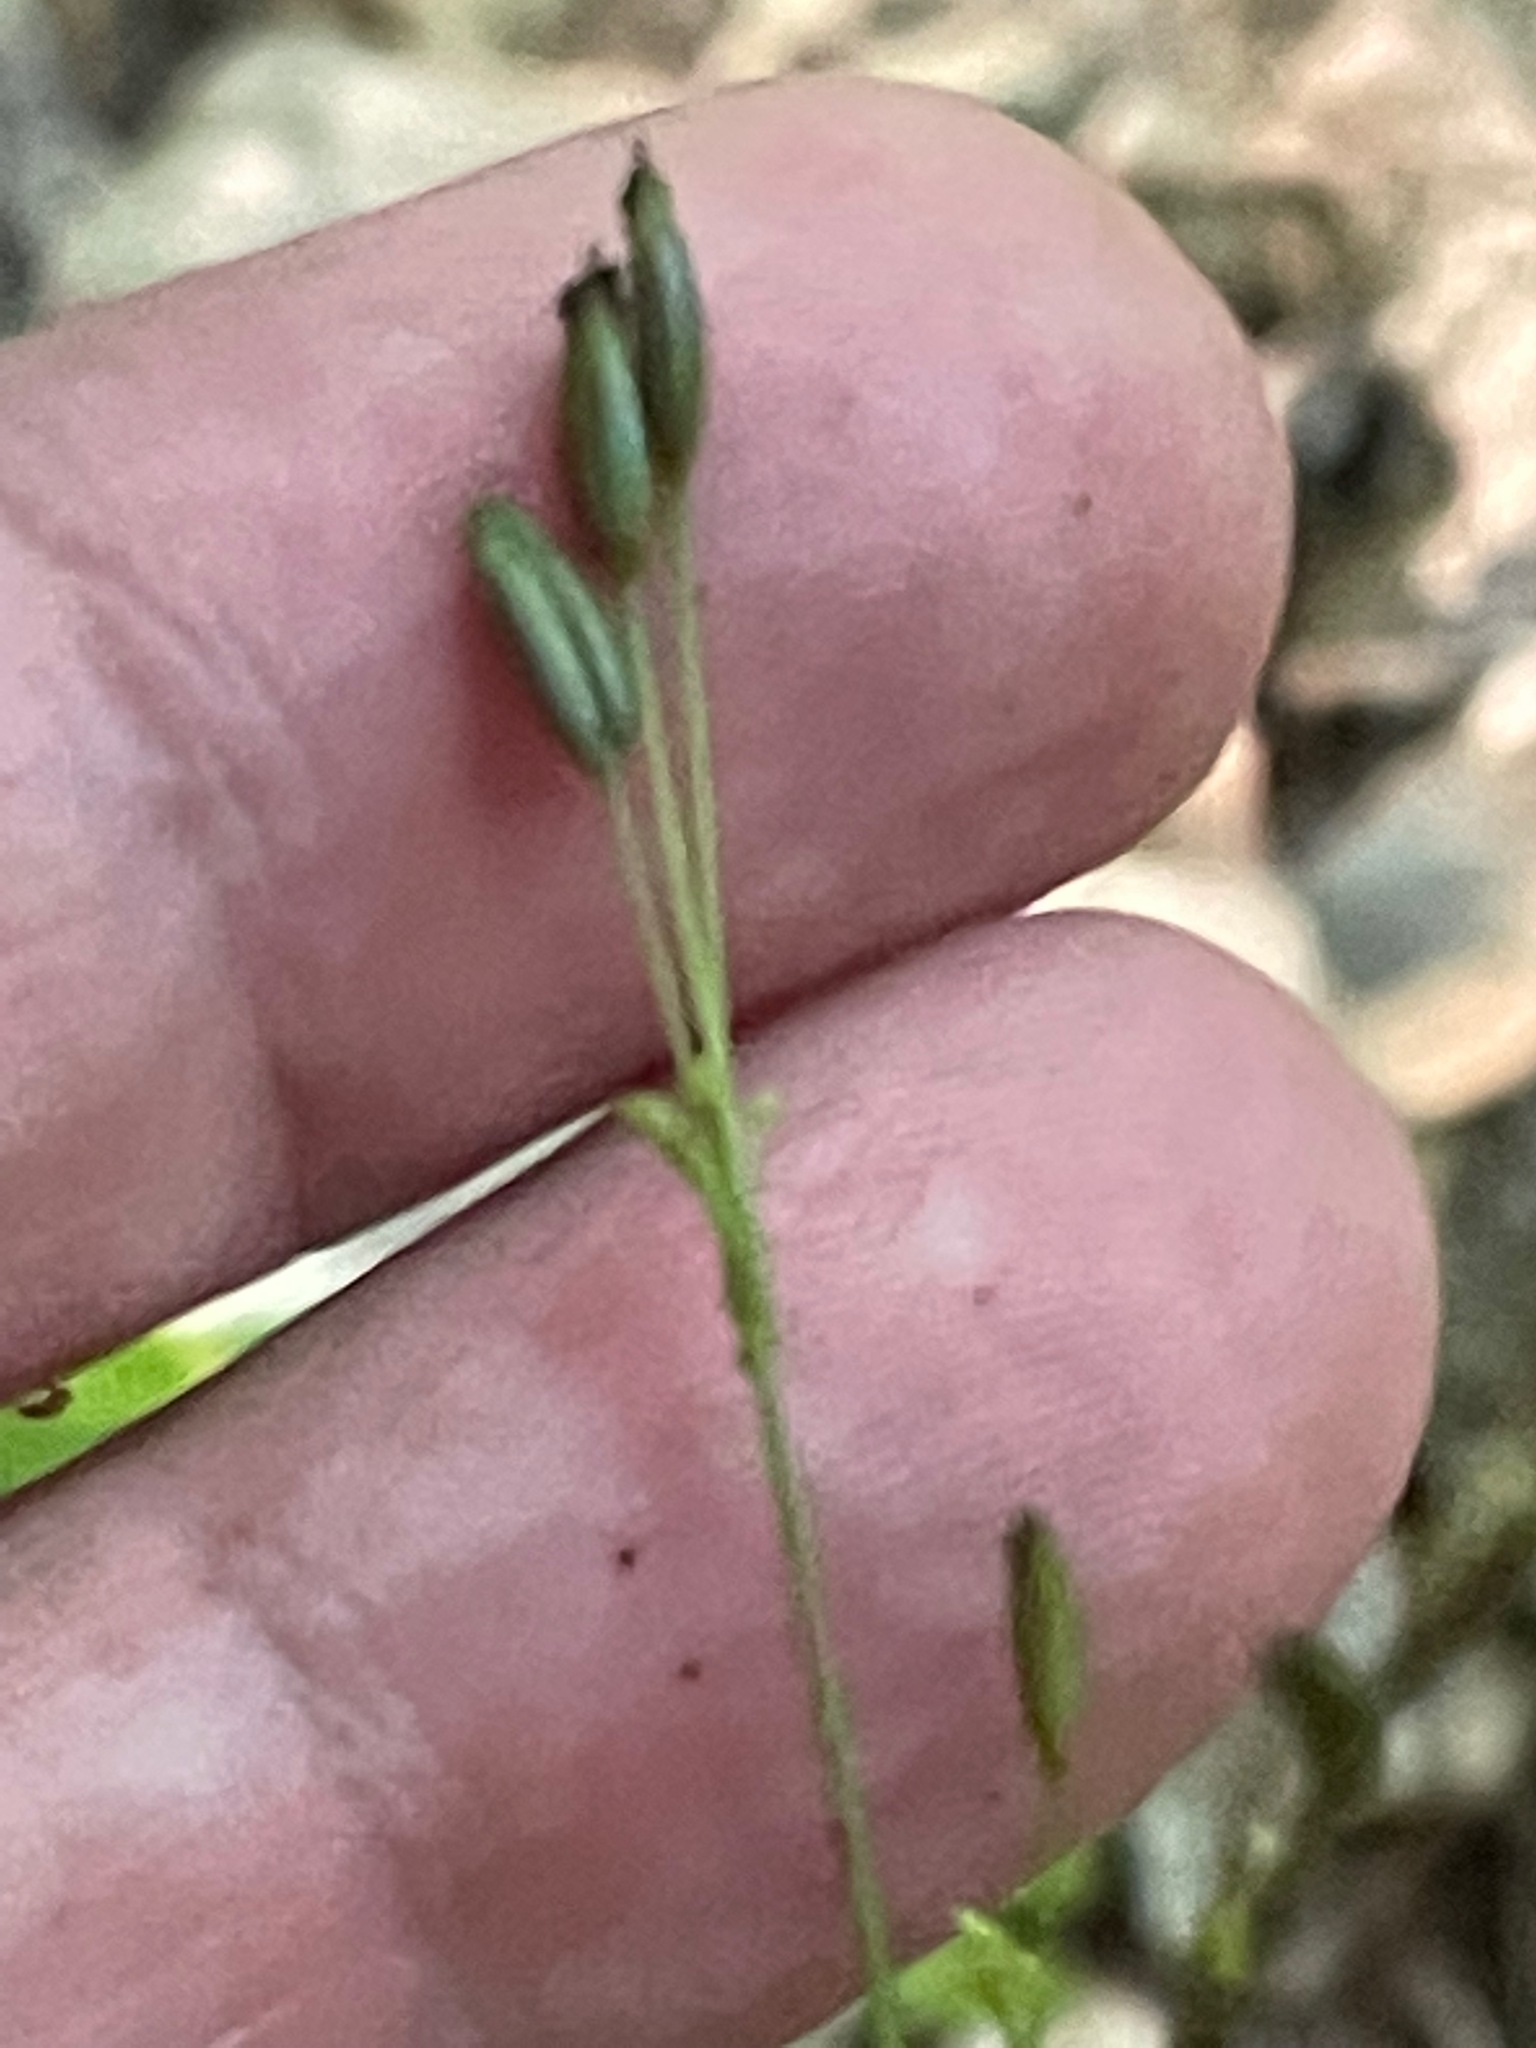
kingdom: Plantae
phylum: Tracheophyta
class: Magnoliopsida
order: Apiales
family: Apiaceae
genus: Cryptotaenia
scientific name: Cryptotaenia canadensis
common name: Honewort
